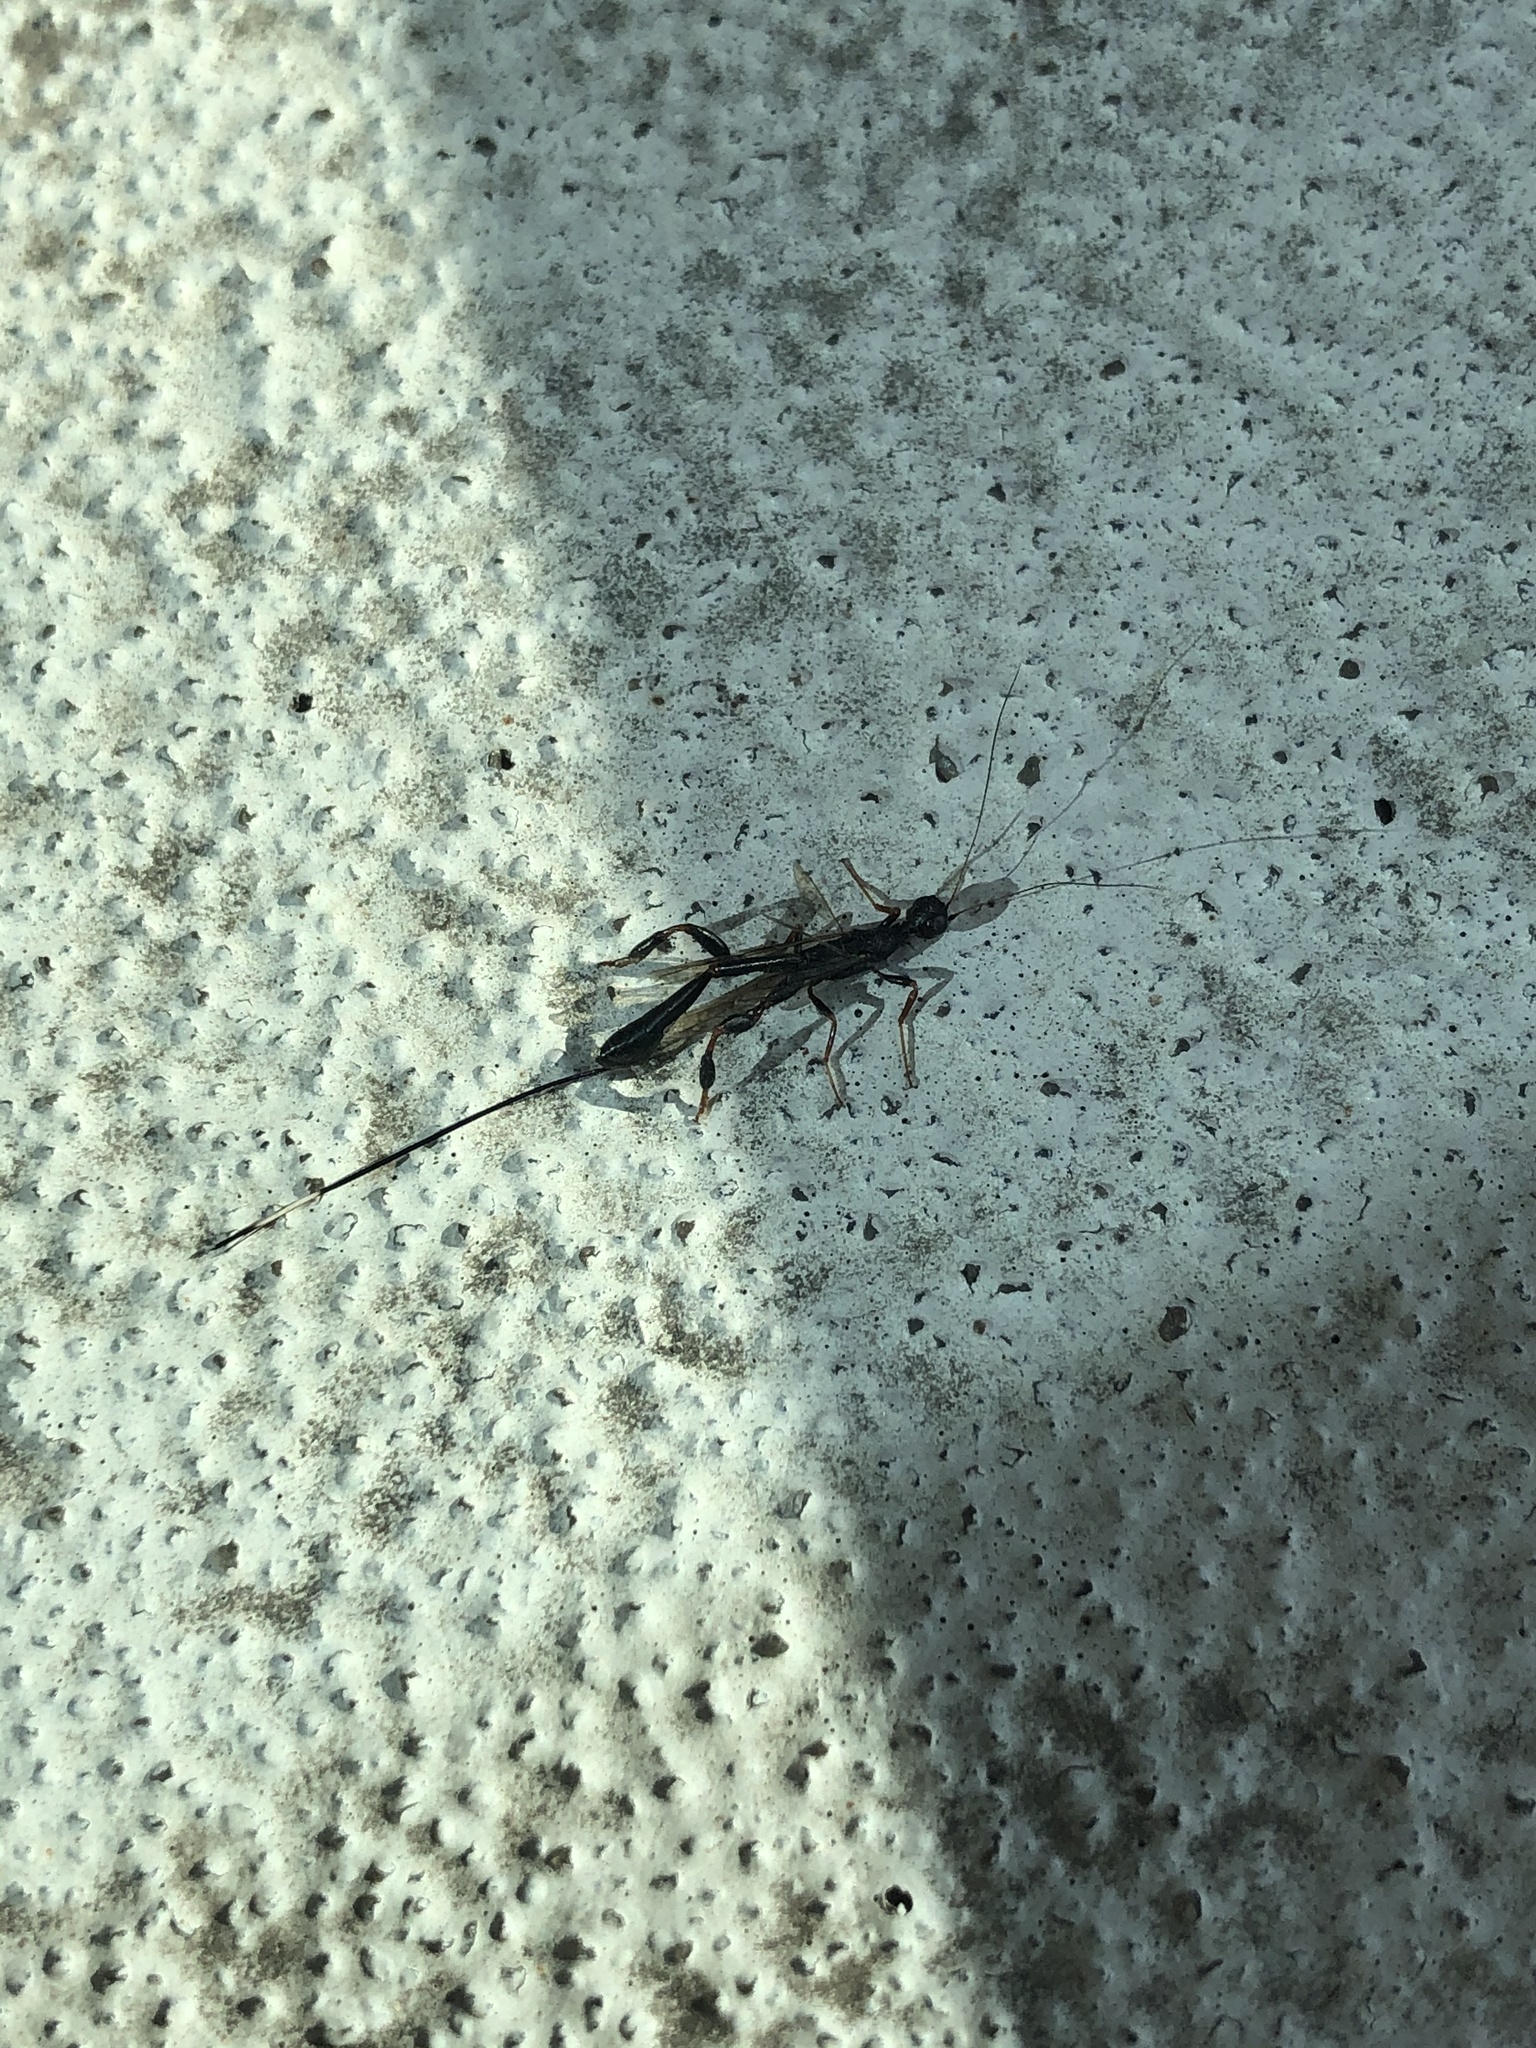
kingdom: Animalia
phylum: Arthropoda
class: Insecta
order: Hymenoptera
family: Stephanidae
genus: Megischus
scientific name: Megischus
